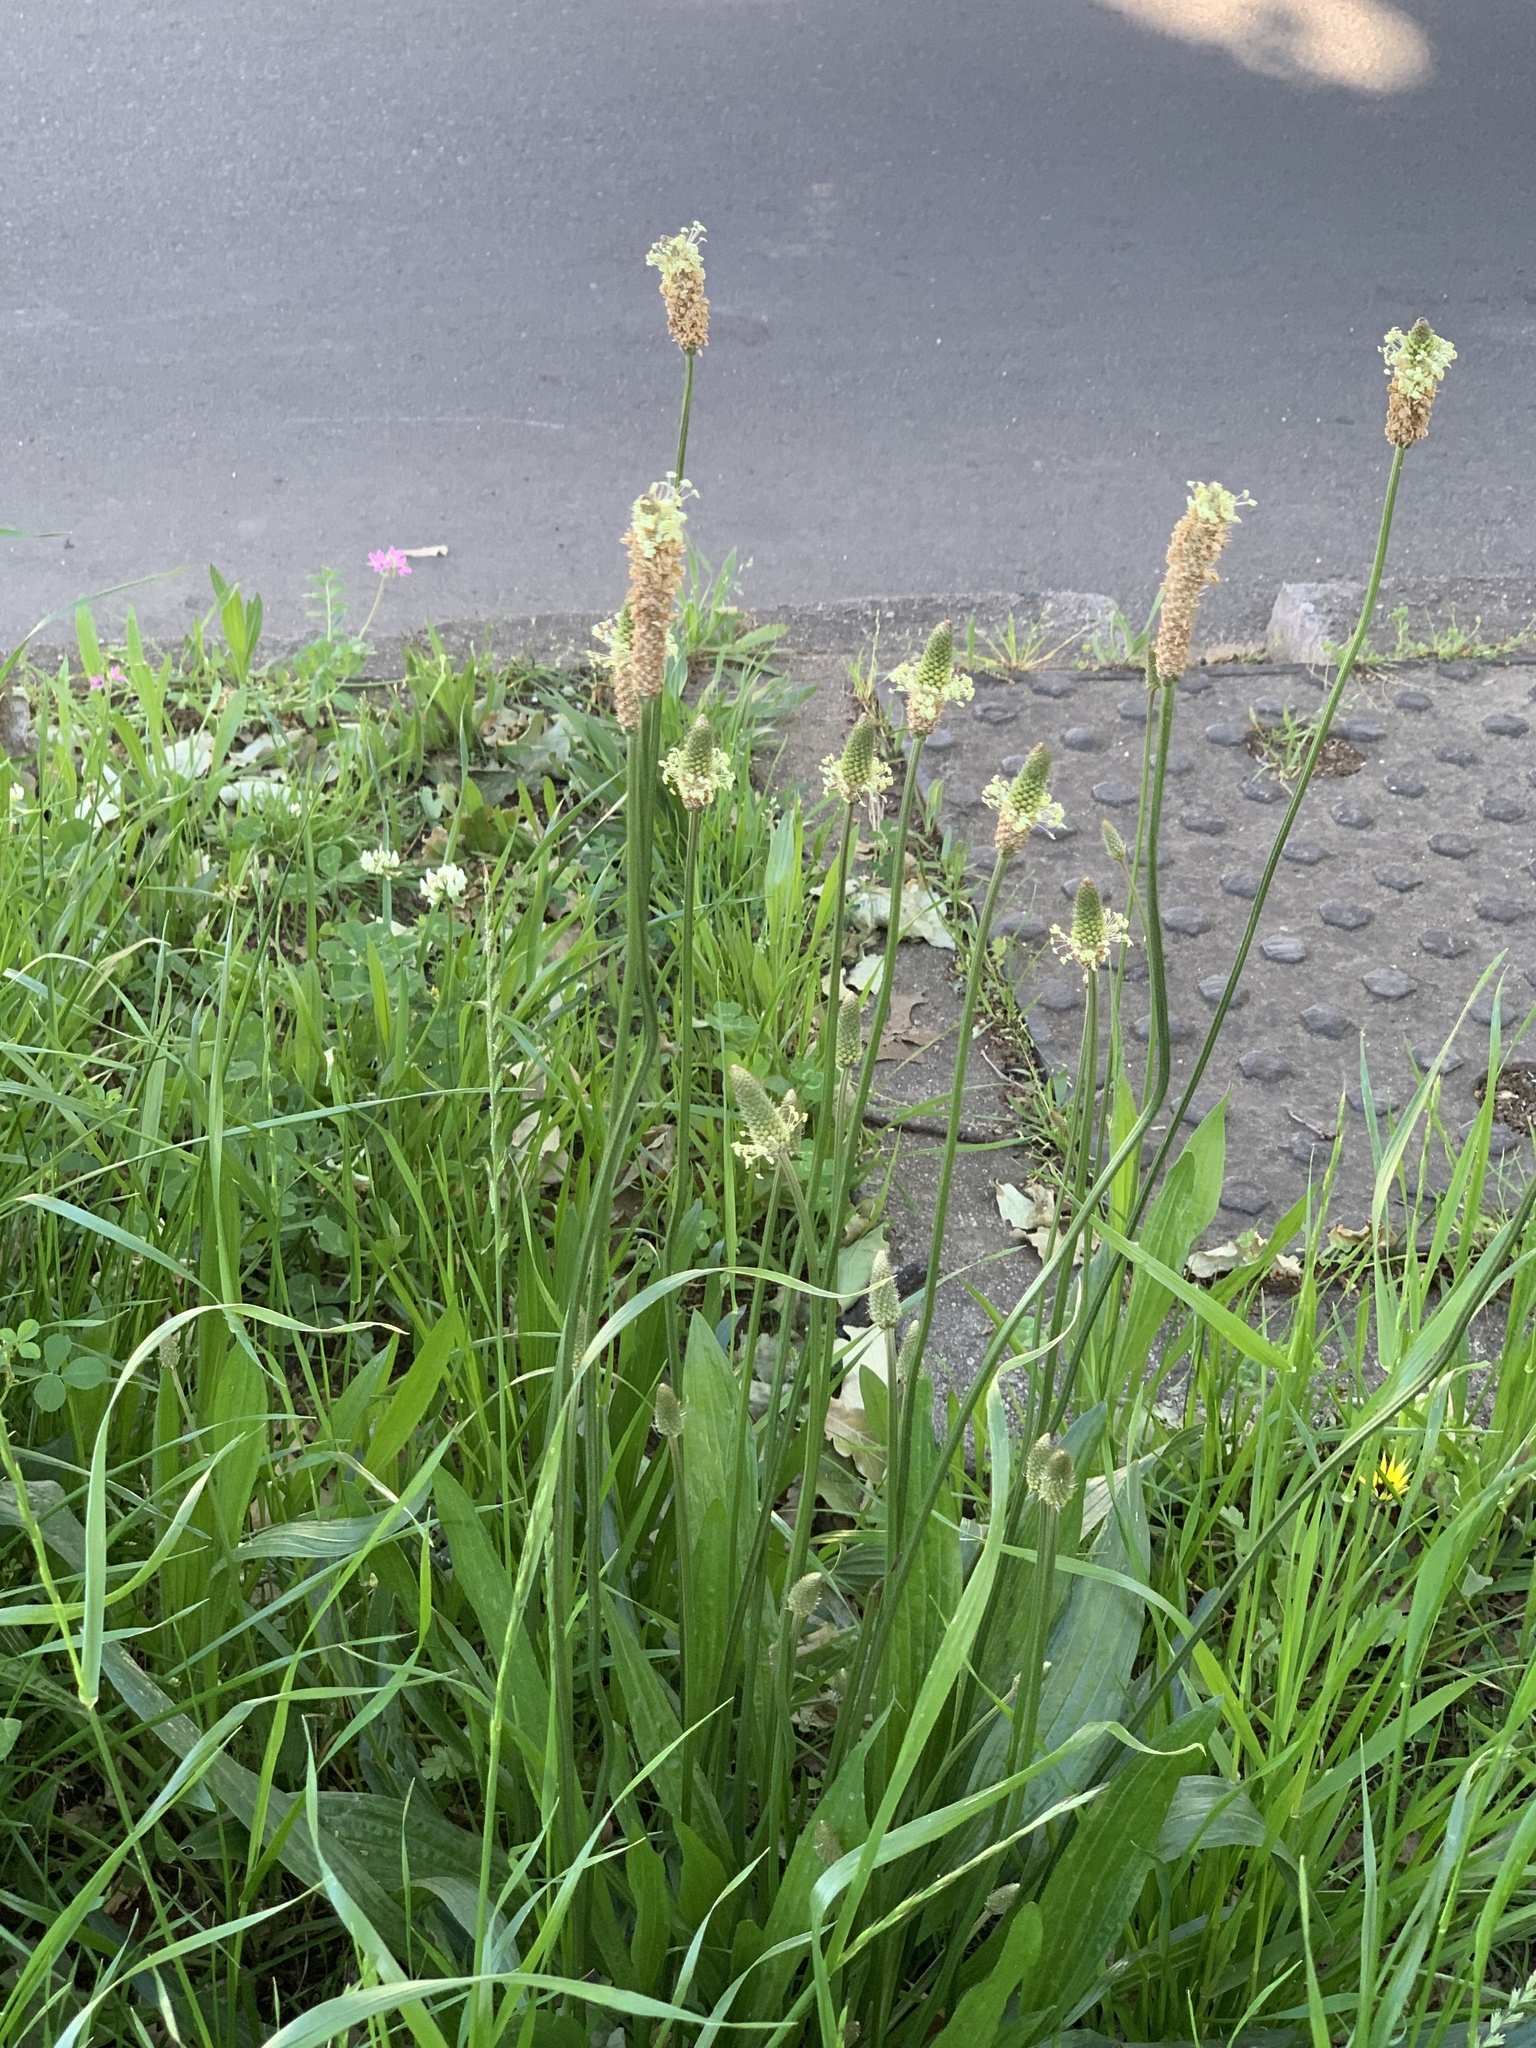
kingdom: Plantae
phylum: Tracheophyta
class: Magnoliopsida
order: Lamiales
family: Plantaginaceae
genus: Plantago
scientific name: Plantago lanceolata
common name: Ribwort plantain
